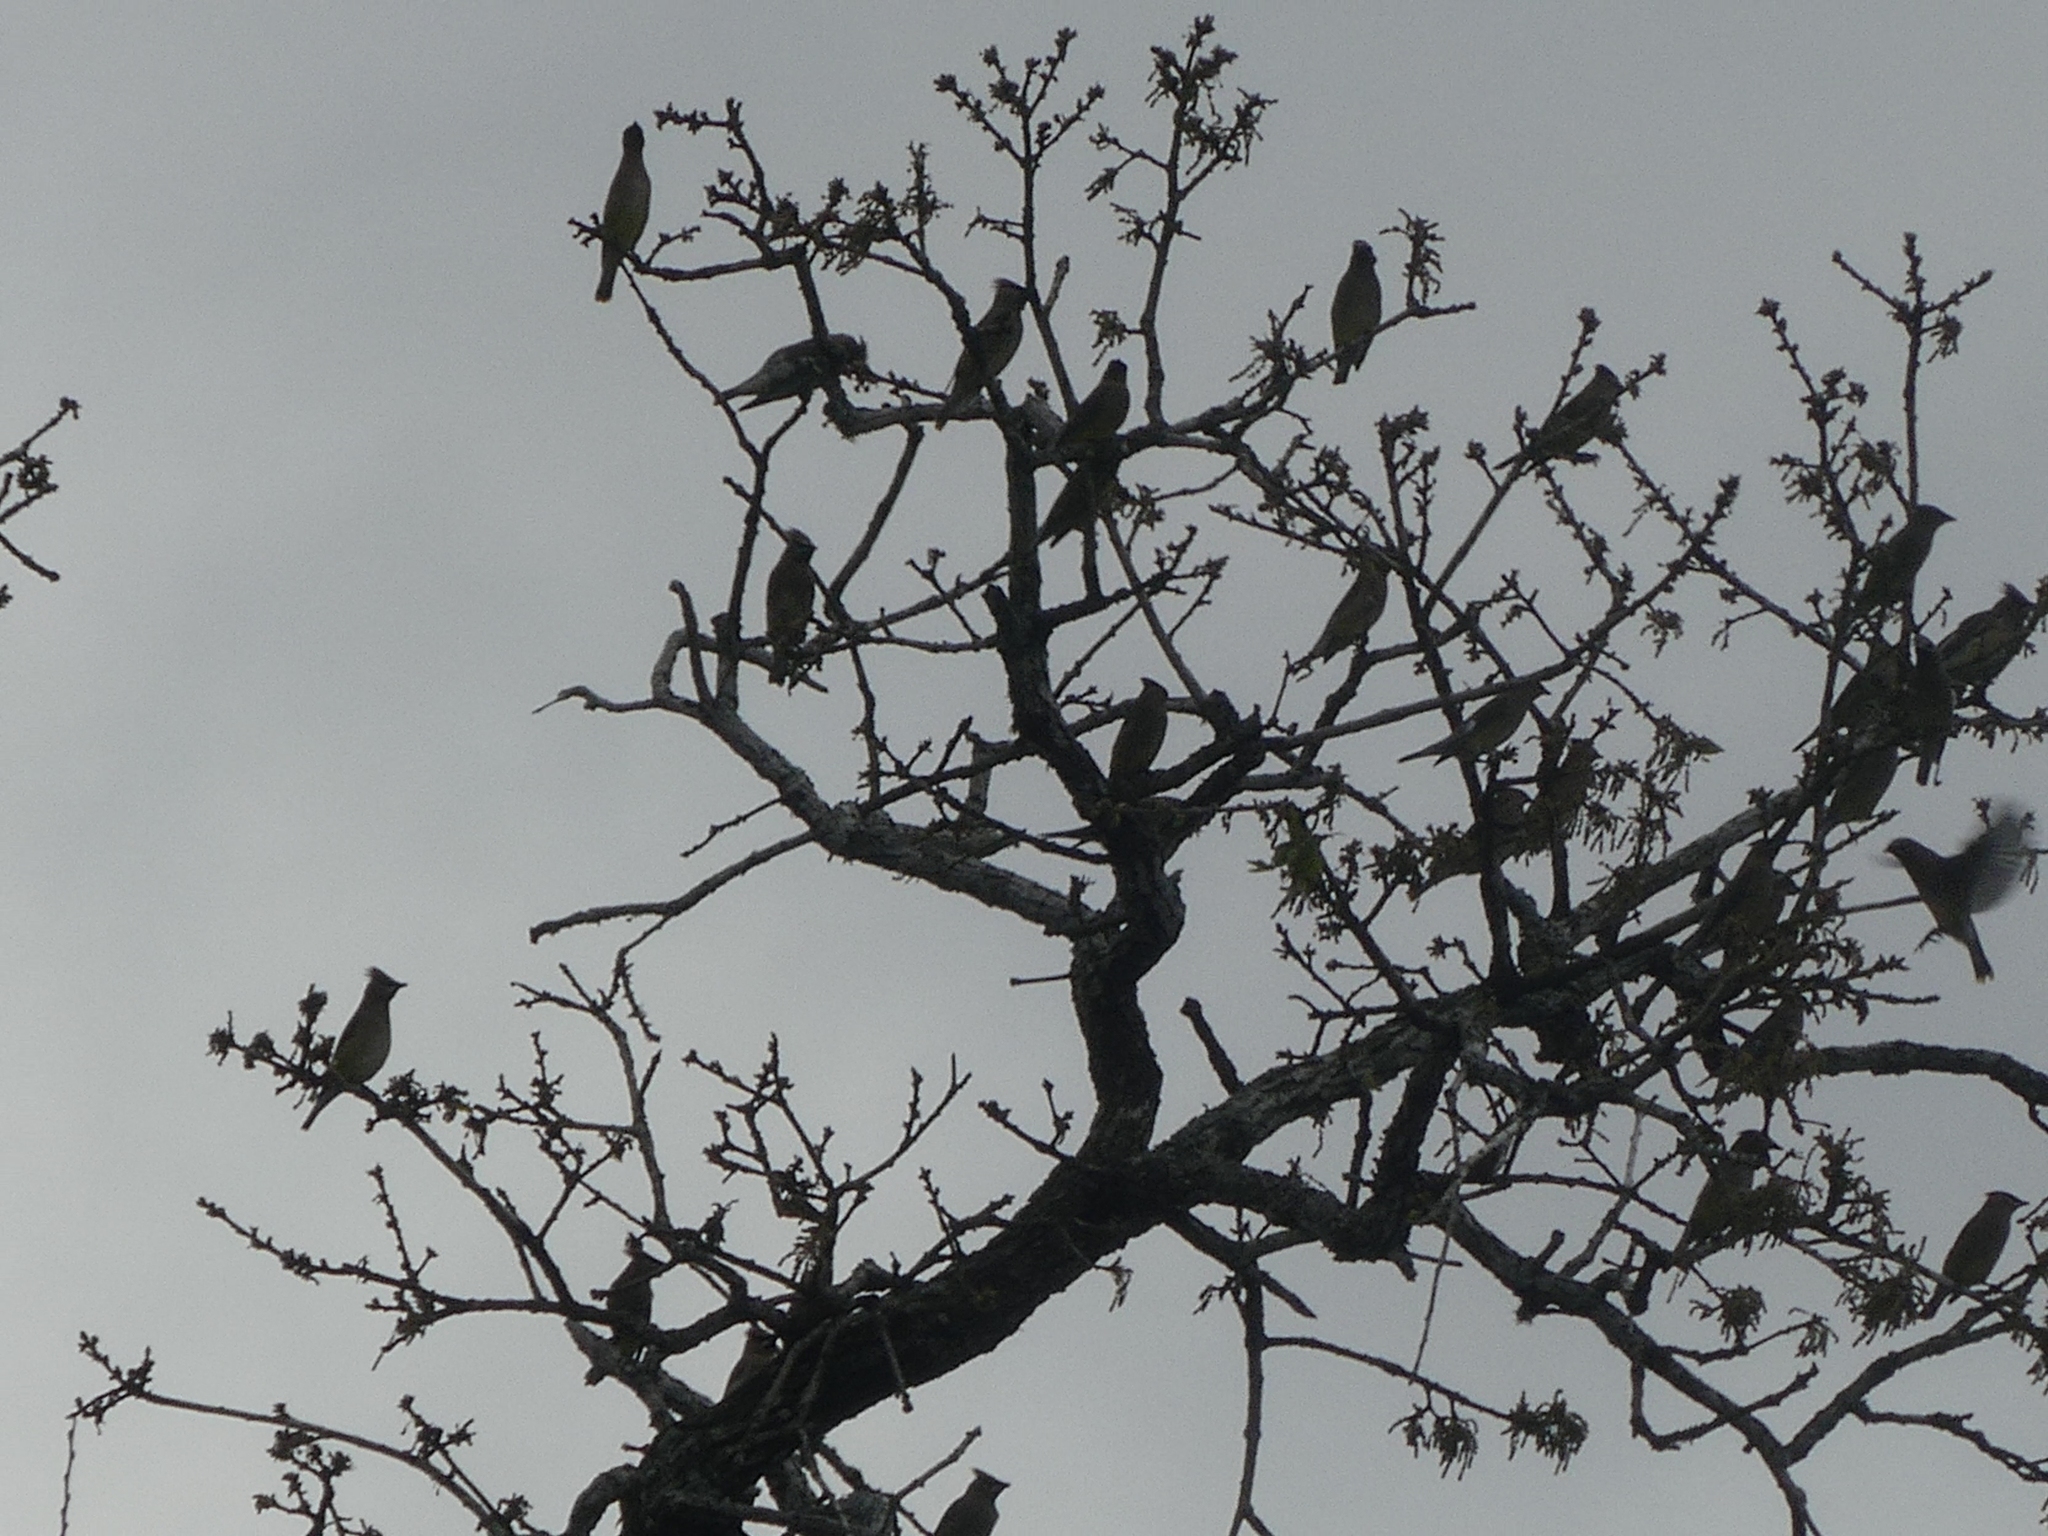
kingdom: Animalia
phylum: Chordata
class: Aves
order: Passeriformes
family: Bombycillidae
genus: Bombycilla
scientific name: Bombycilla cedrorum
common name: Cedar waxwing
